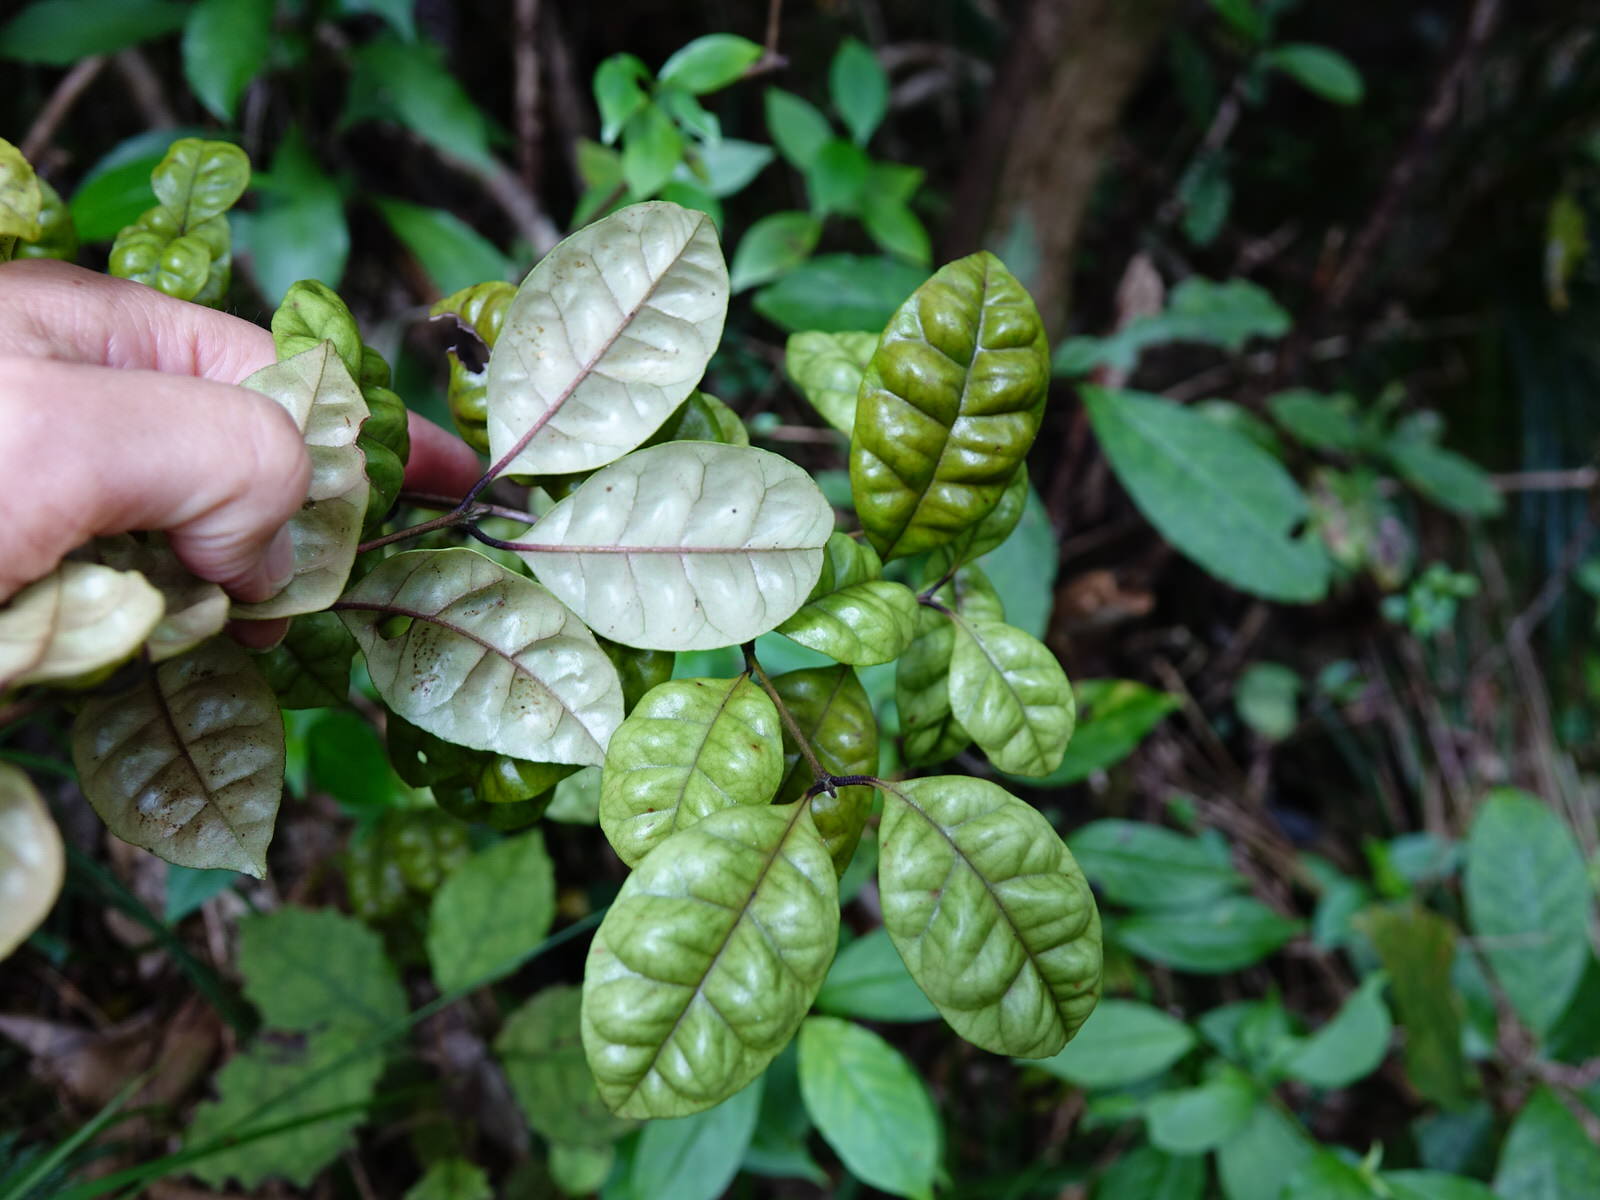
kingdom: Plantae
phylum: Tracheophyta
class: Magnoliopsida
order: Myrtales
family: Myrtaceae
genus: Lophomyrtus
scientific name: Lophomyrtus bullata
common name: Rama rama
